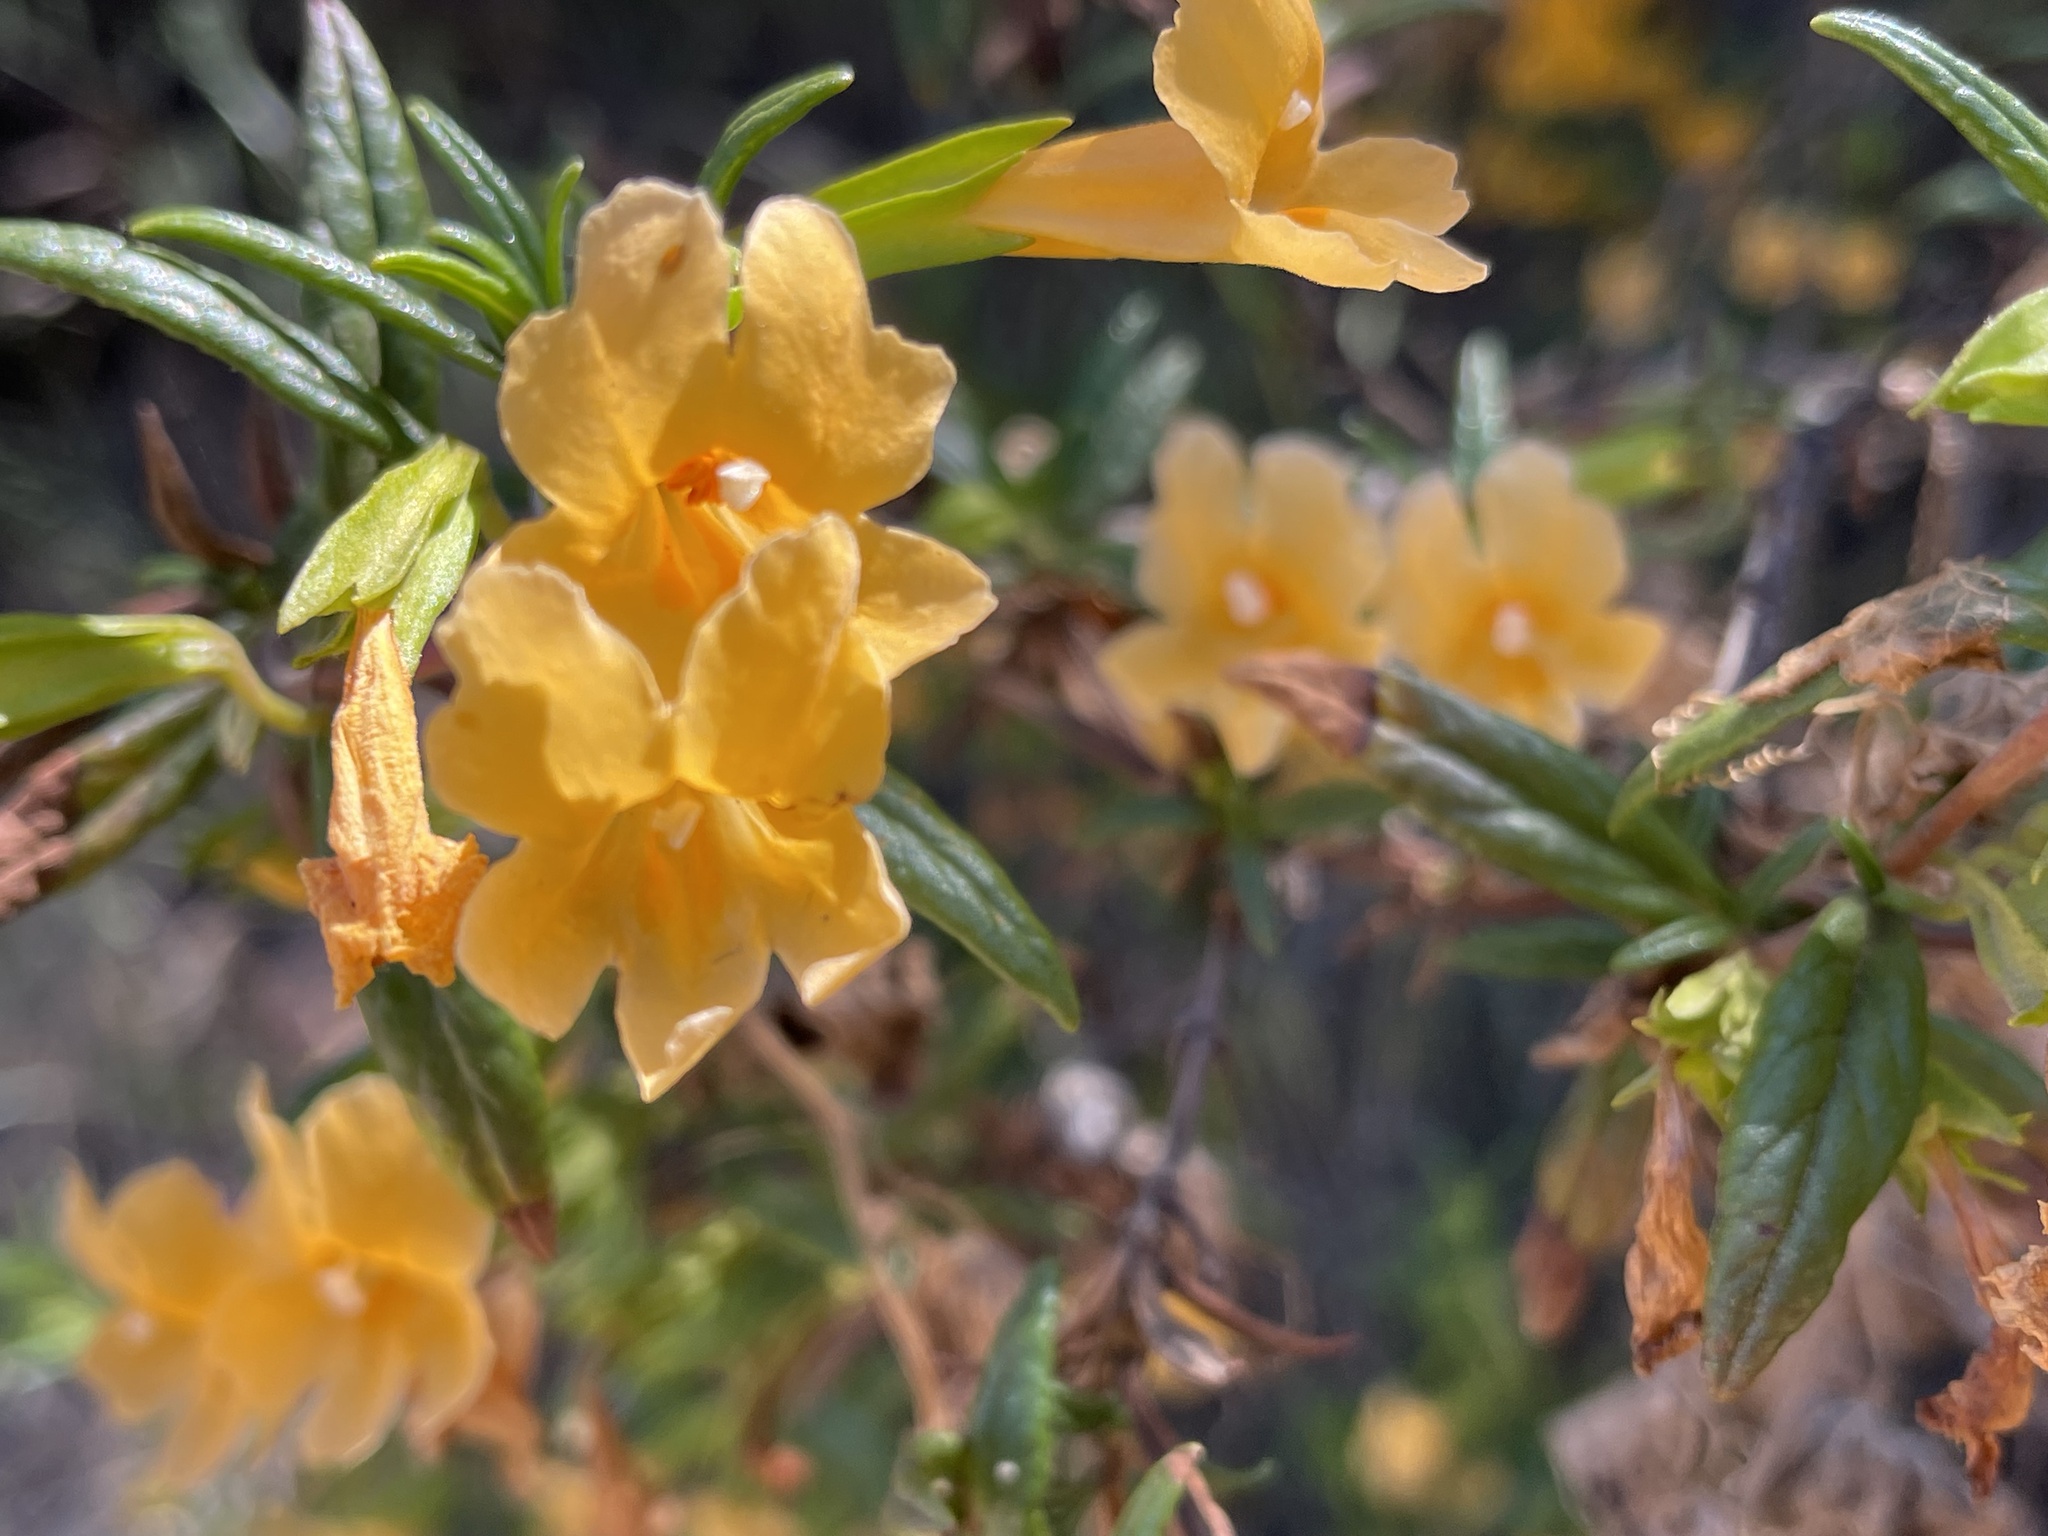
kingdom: Plantae
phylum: Tracheophyta
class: Magnoliopsida
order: Lamiales
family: Phrymaceae
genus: Diplacus
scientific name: Diplacus aurantiacus
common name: Bush monkey-flower
